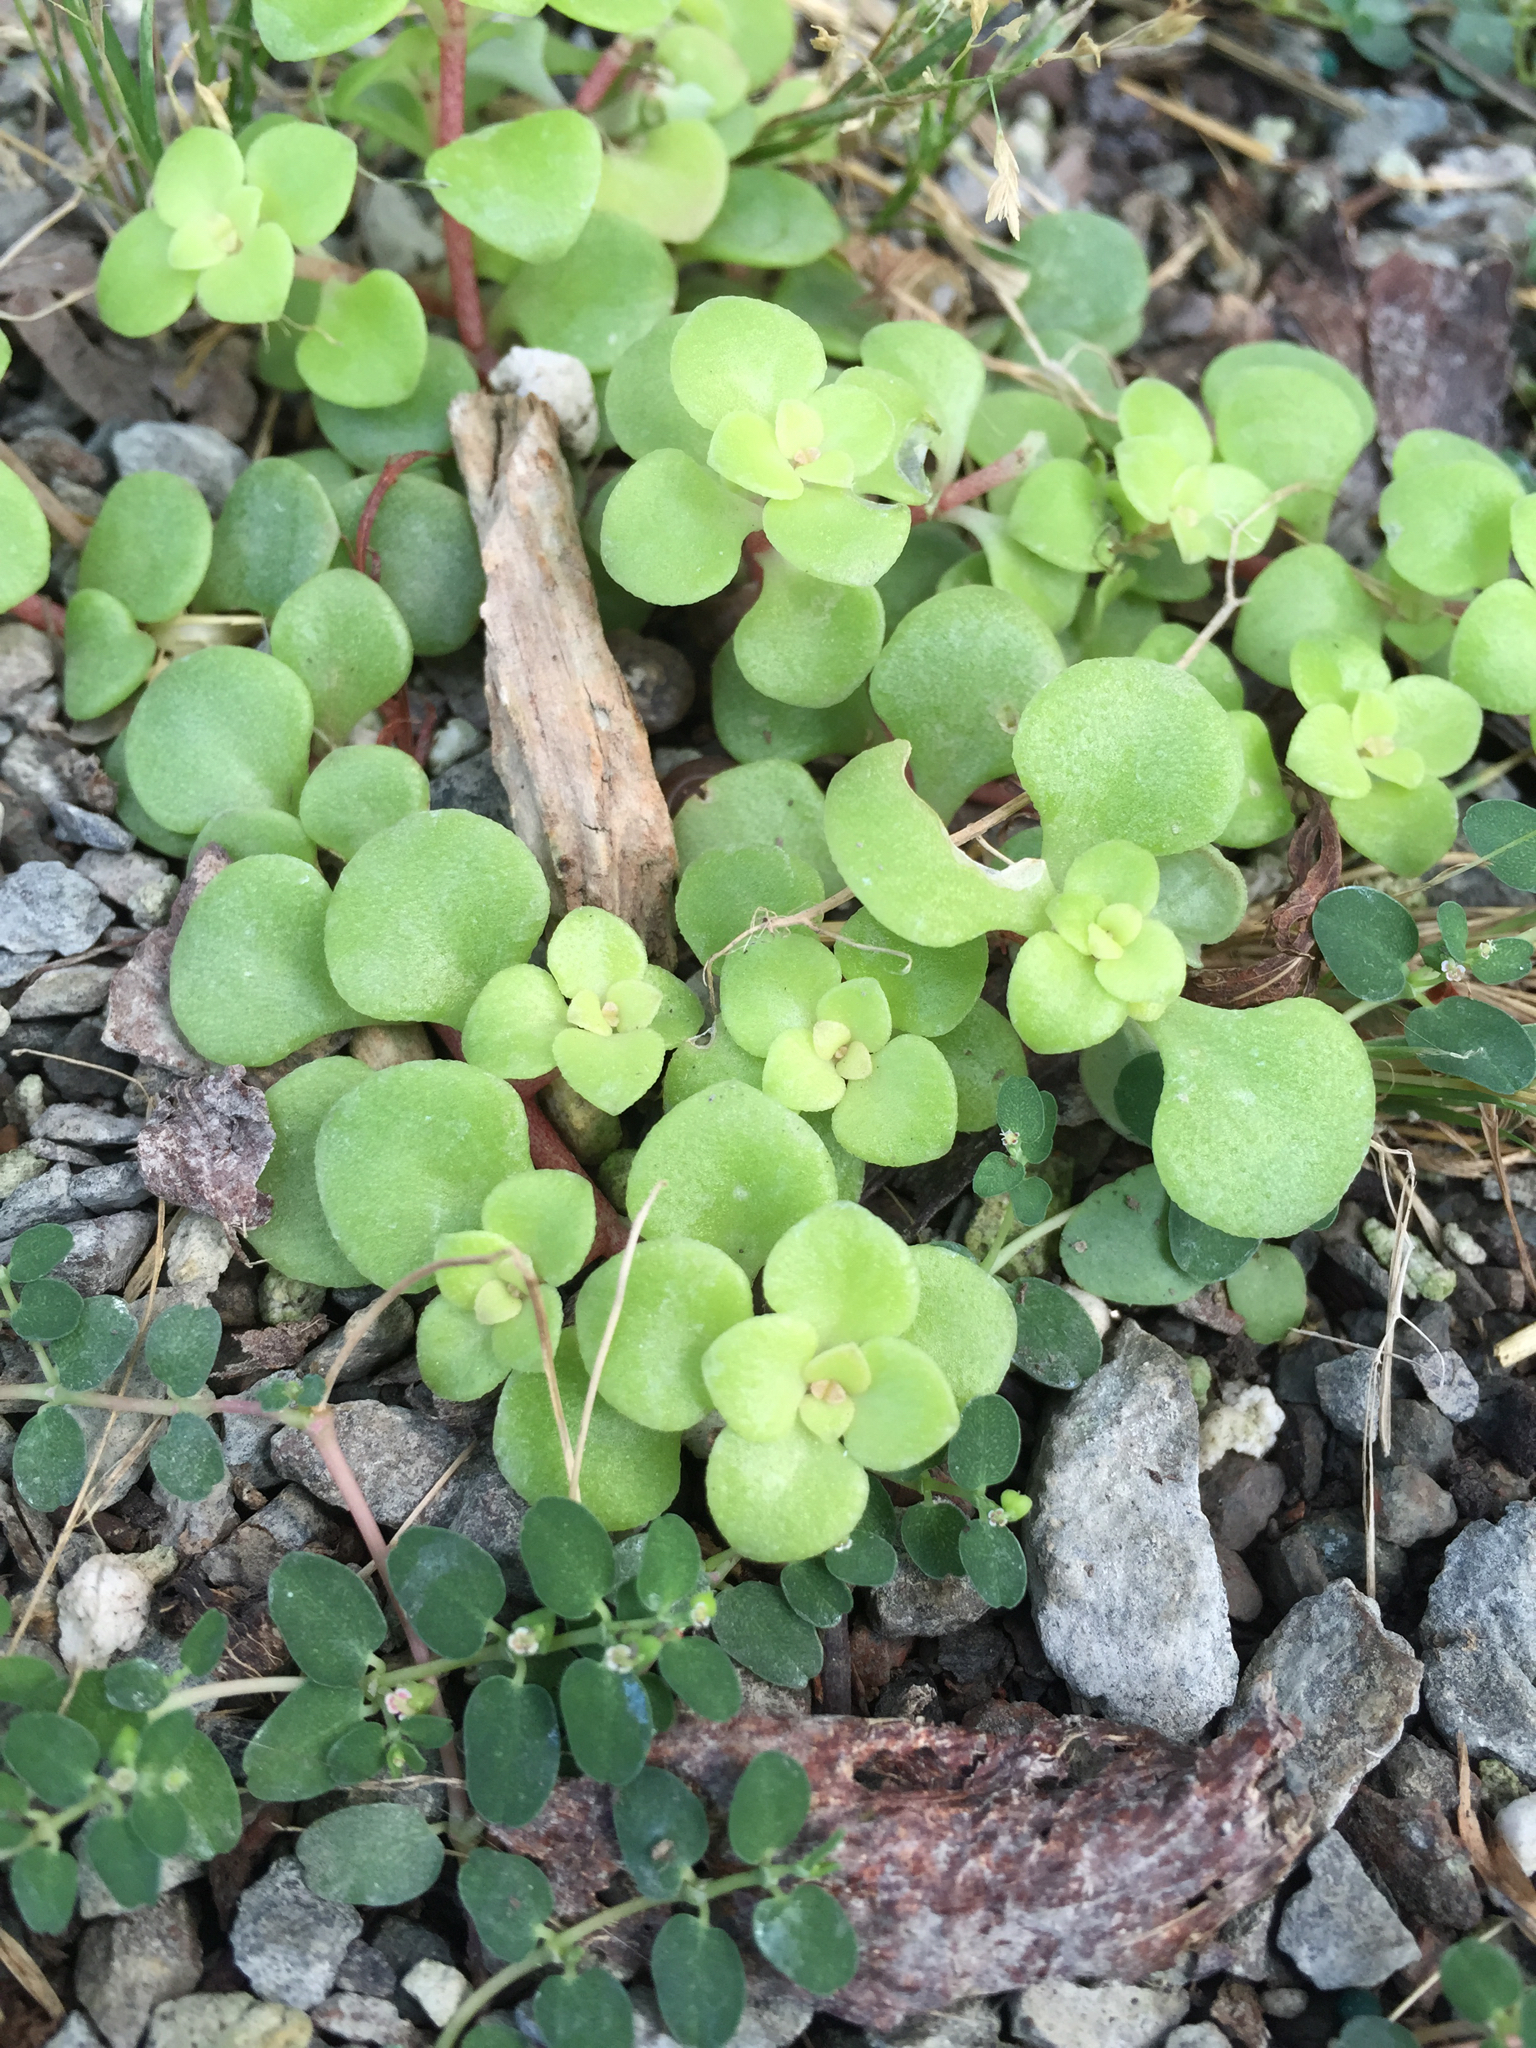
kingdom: Plantae
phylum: Tracheophyta
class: Magnoliopsida
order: Saxifragales
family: Crassulaceae
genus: Sedum
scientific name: Sedum makinoi
